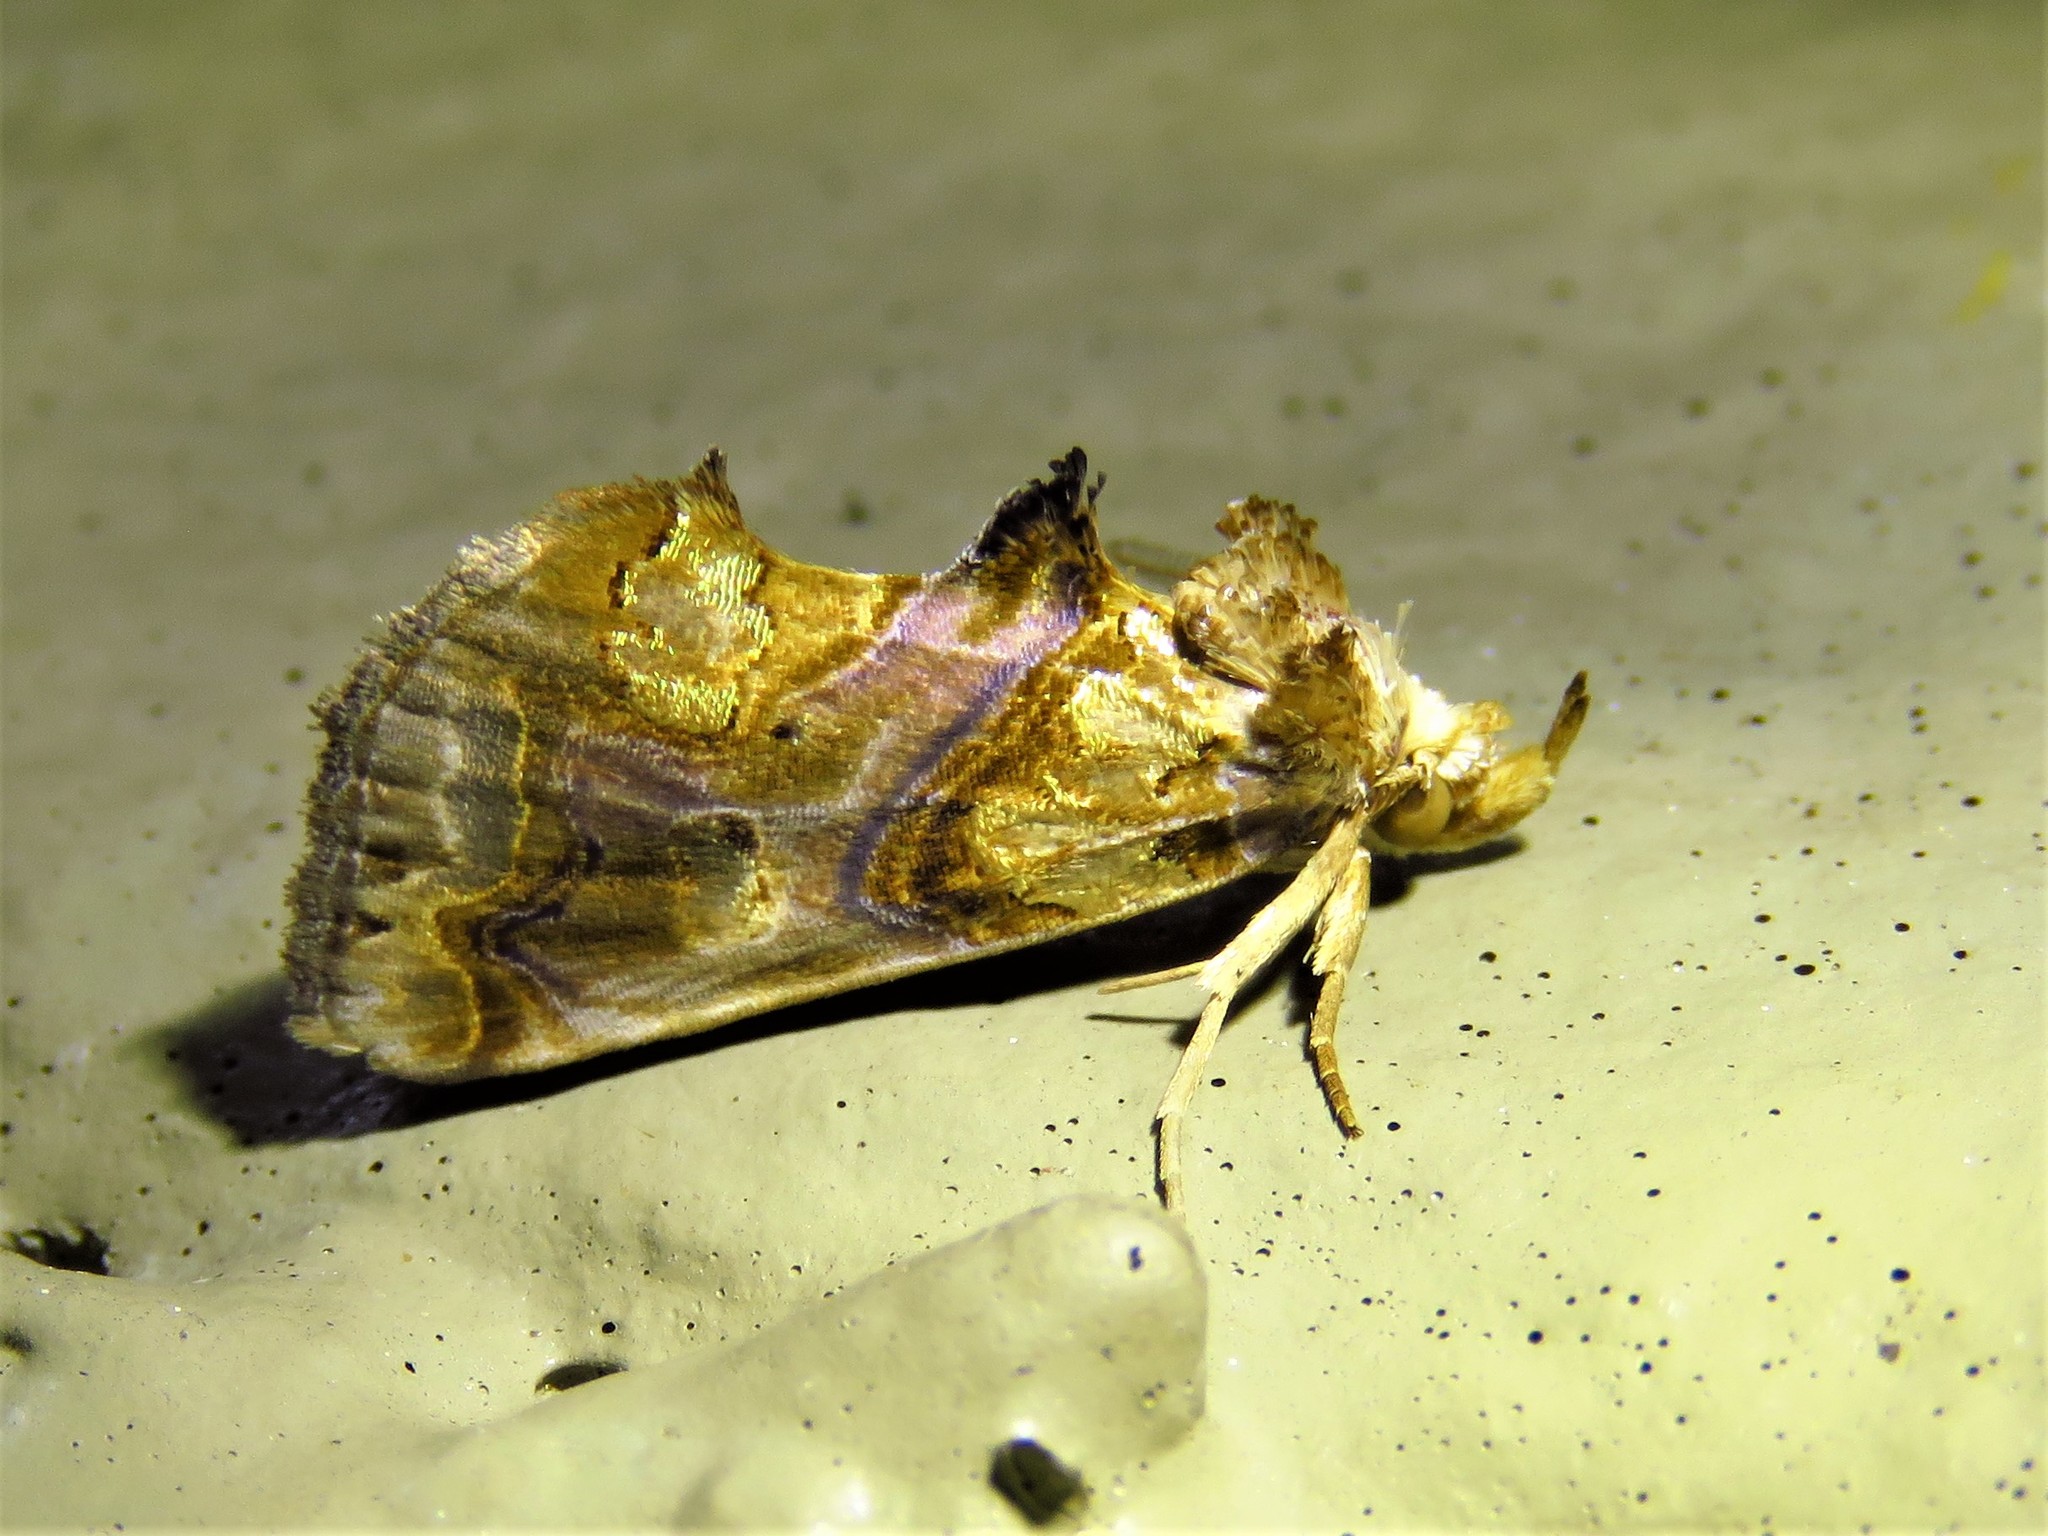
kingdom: Animalia
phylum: Arthropoda
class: Insecta
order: Lepidoptera
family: Erebidae
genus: Plusiodonta
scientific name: Plusiodonta compressipalpis
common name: Moonseed moth
